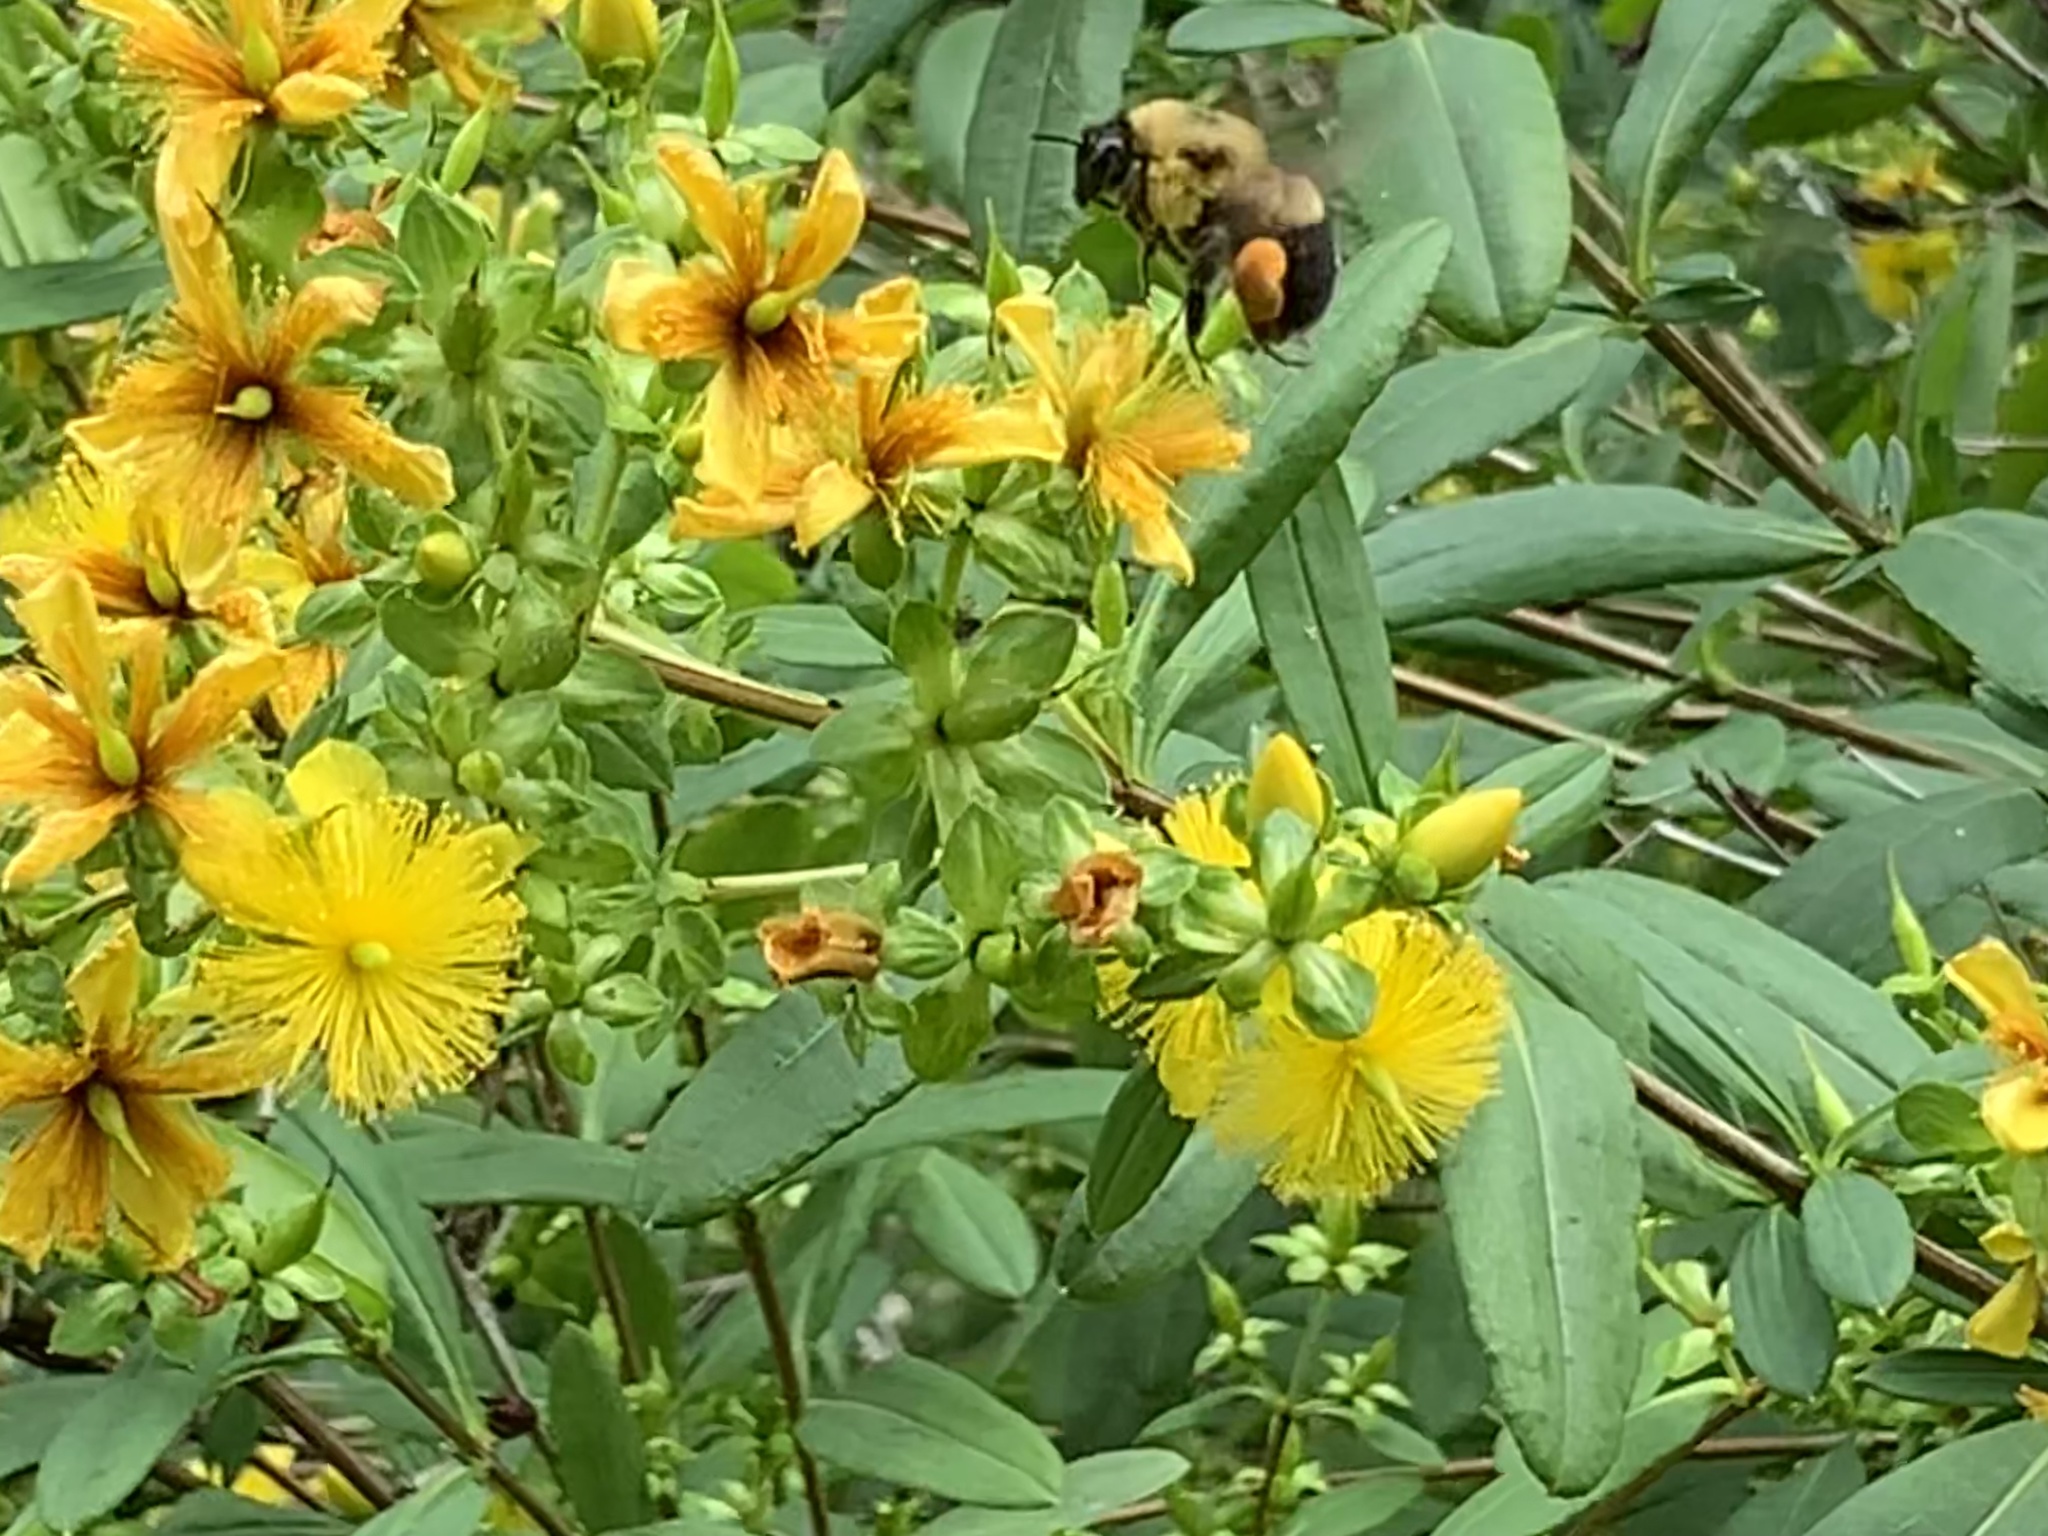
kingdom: Animalia
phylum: Arthropoda
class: Insecta
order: Hymenoptera
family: Apidae
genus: Bombus
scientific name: Bombus griseocollis
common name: Brown-belted bumble bee
